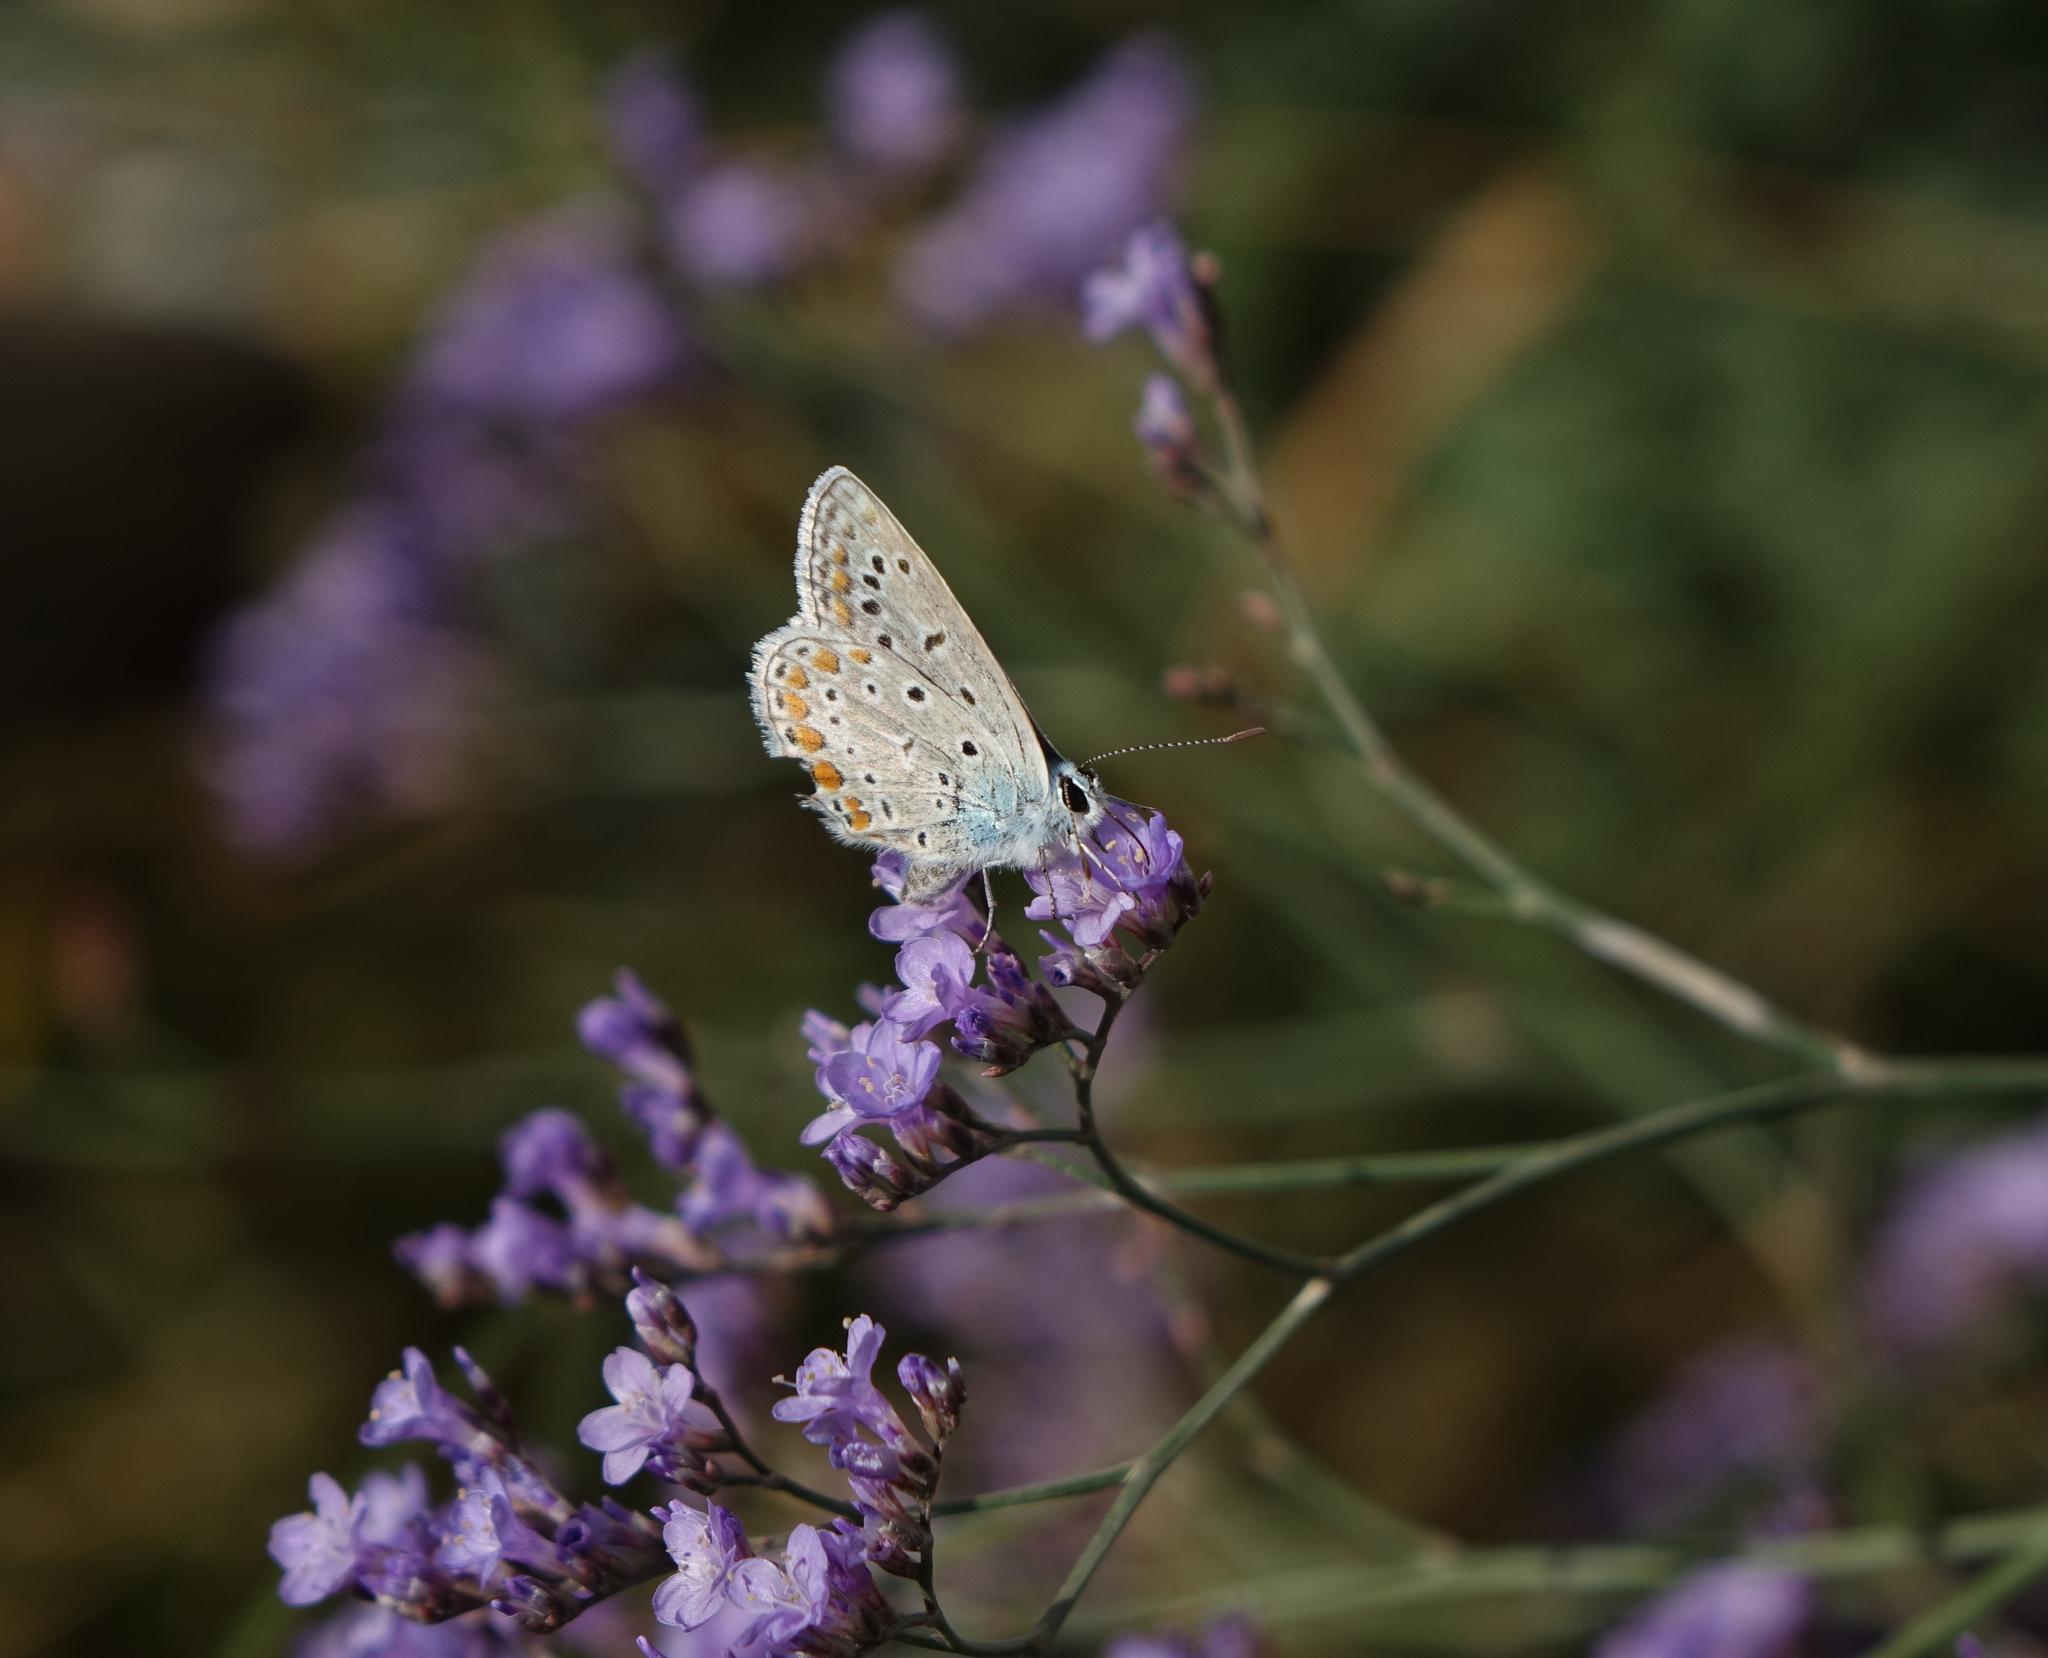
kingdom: Animalia
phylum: Arthropoda
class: Insecta
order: Lepidoptera
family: Lycaenidae
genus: Polyommatus
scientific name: Polyommatus icarus
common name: Common blue
